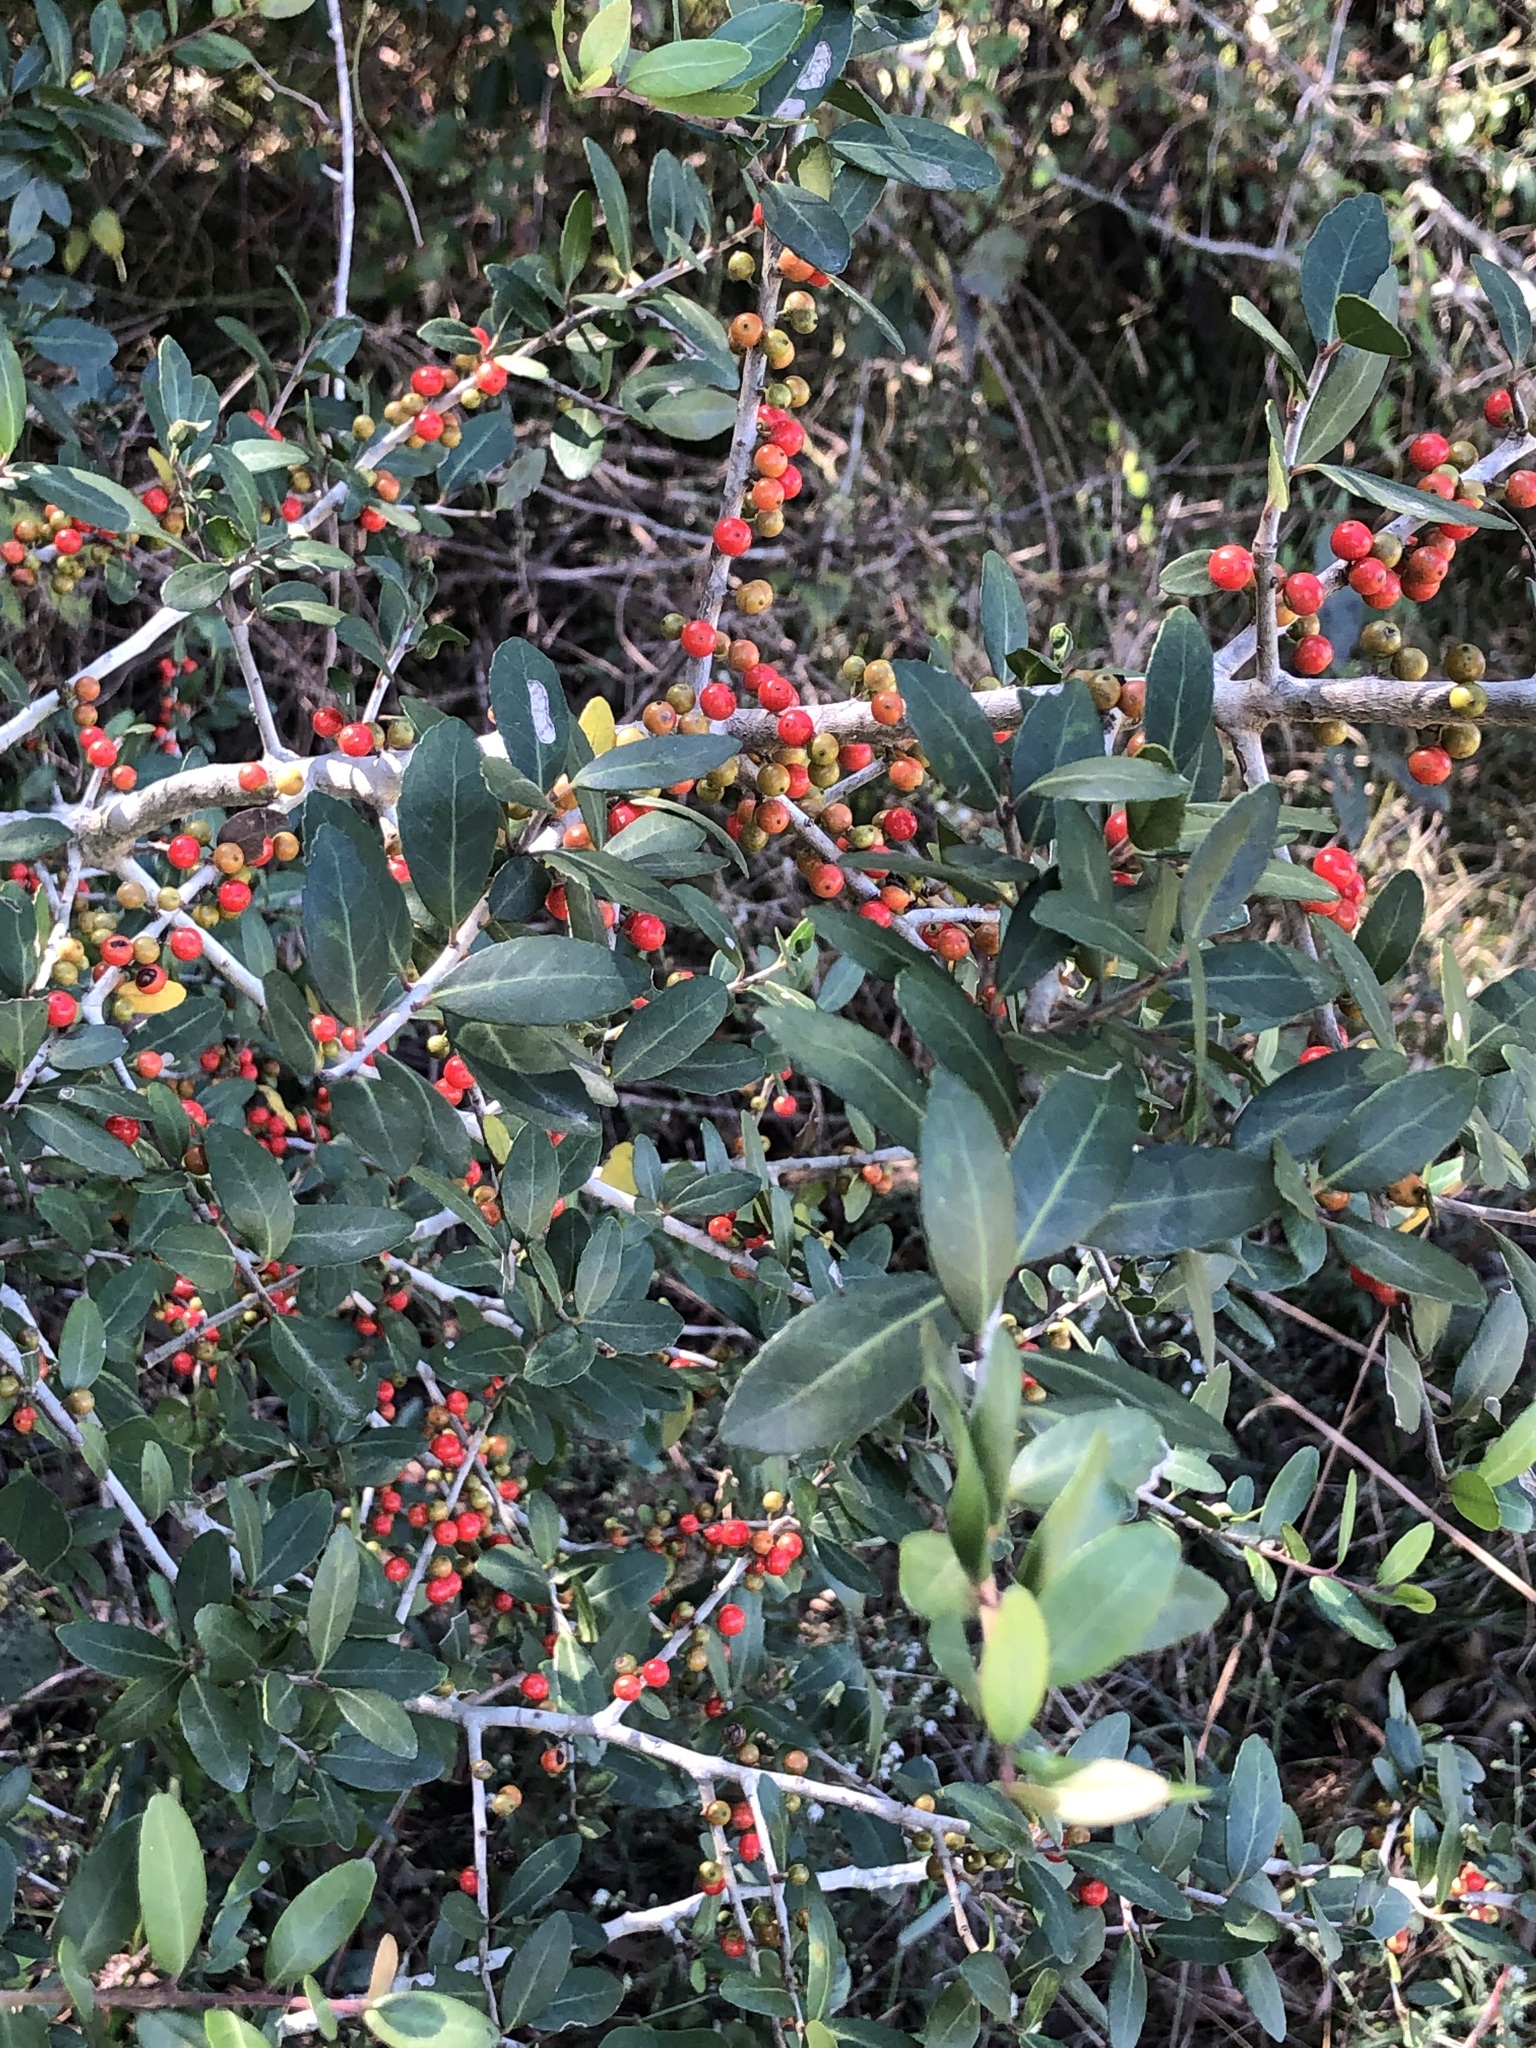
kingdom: Plantae
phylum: Tracheophyta
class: Magnoliopsida
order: Aquifoliales
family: Aquifoliaceae
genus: Ilex
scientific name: Ilex vomitoria
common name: Yaupon holly
